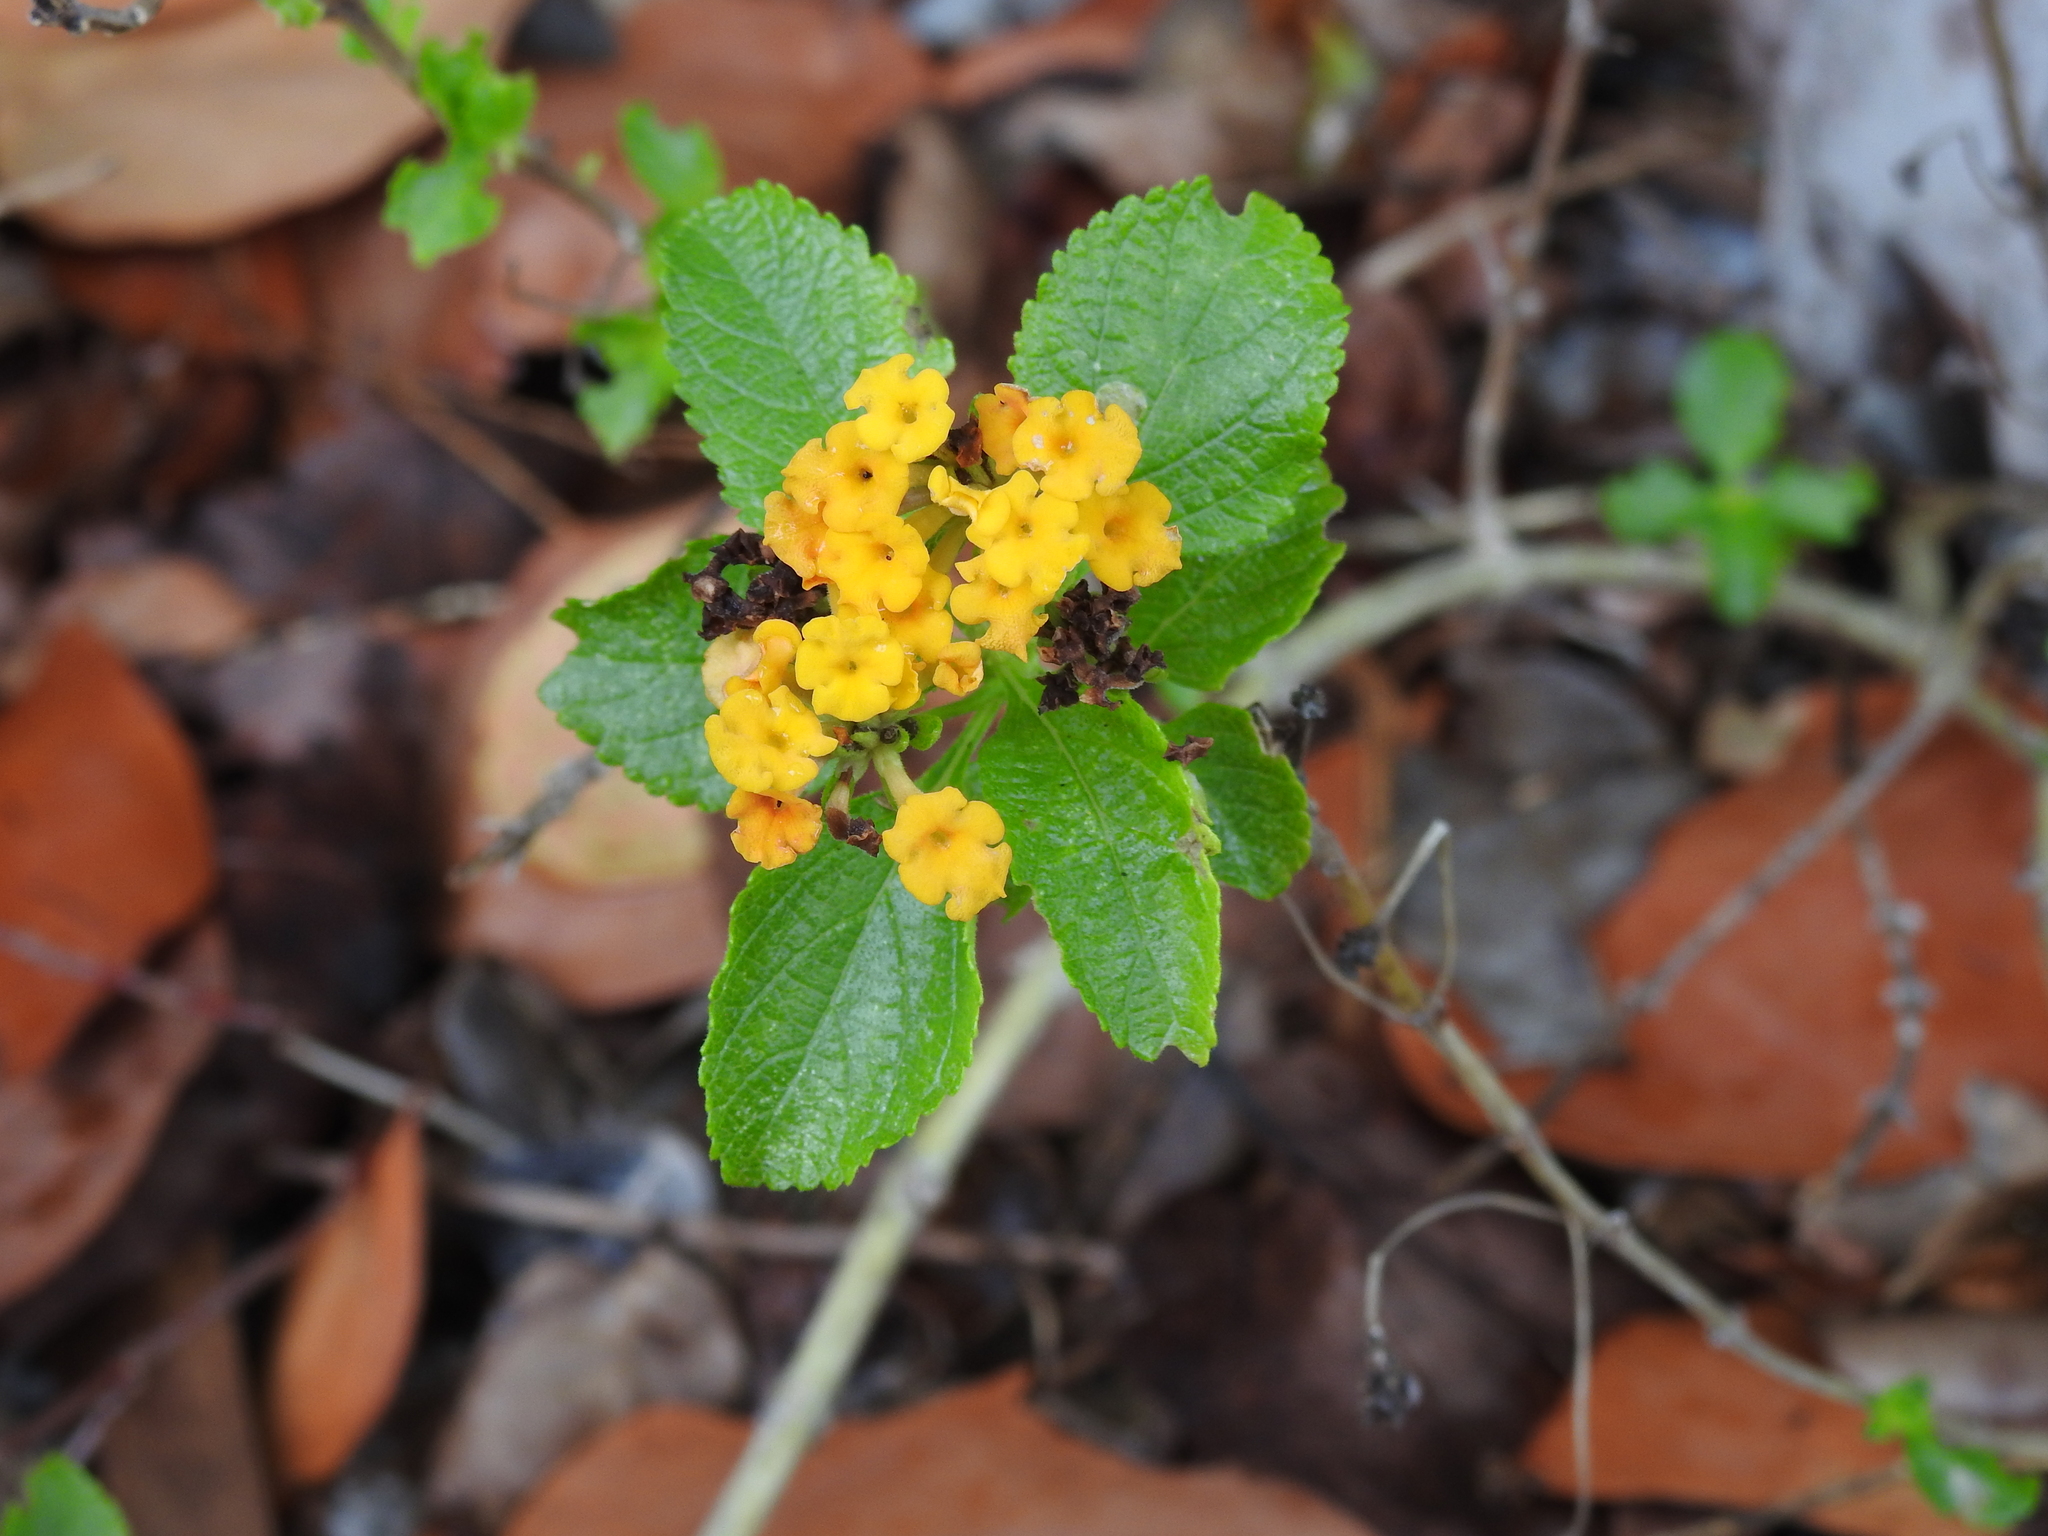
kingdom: Plantae
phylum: Tracheophyta
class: Magnoliopsida
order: Lamiales
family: Verbenaceae
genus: Lantana
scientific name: Lantana depressa
